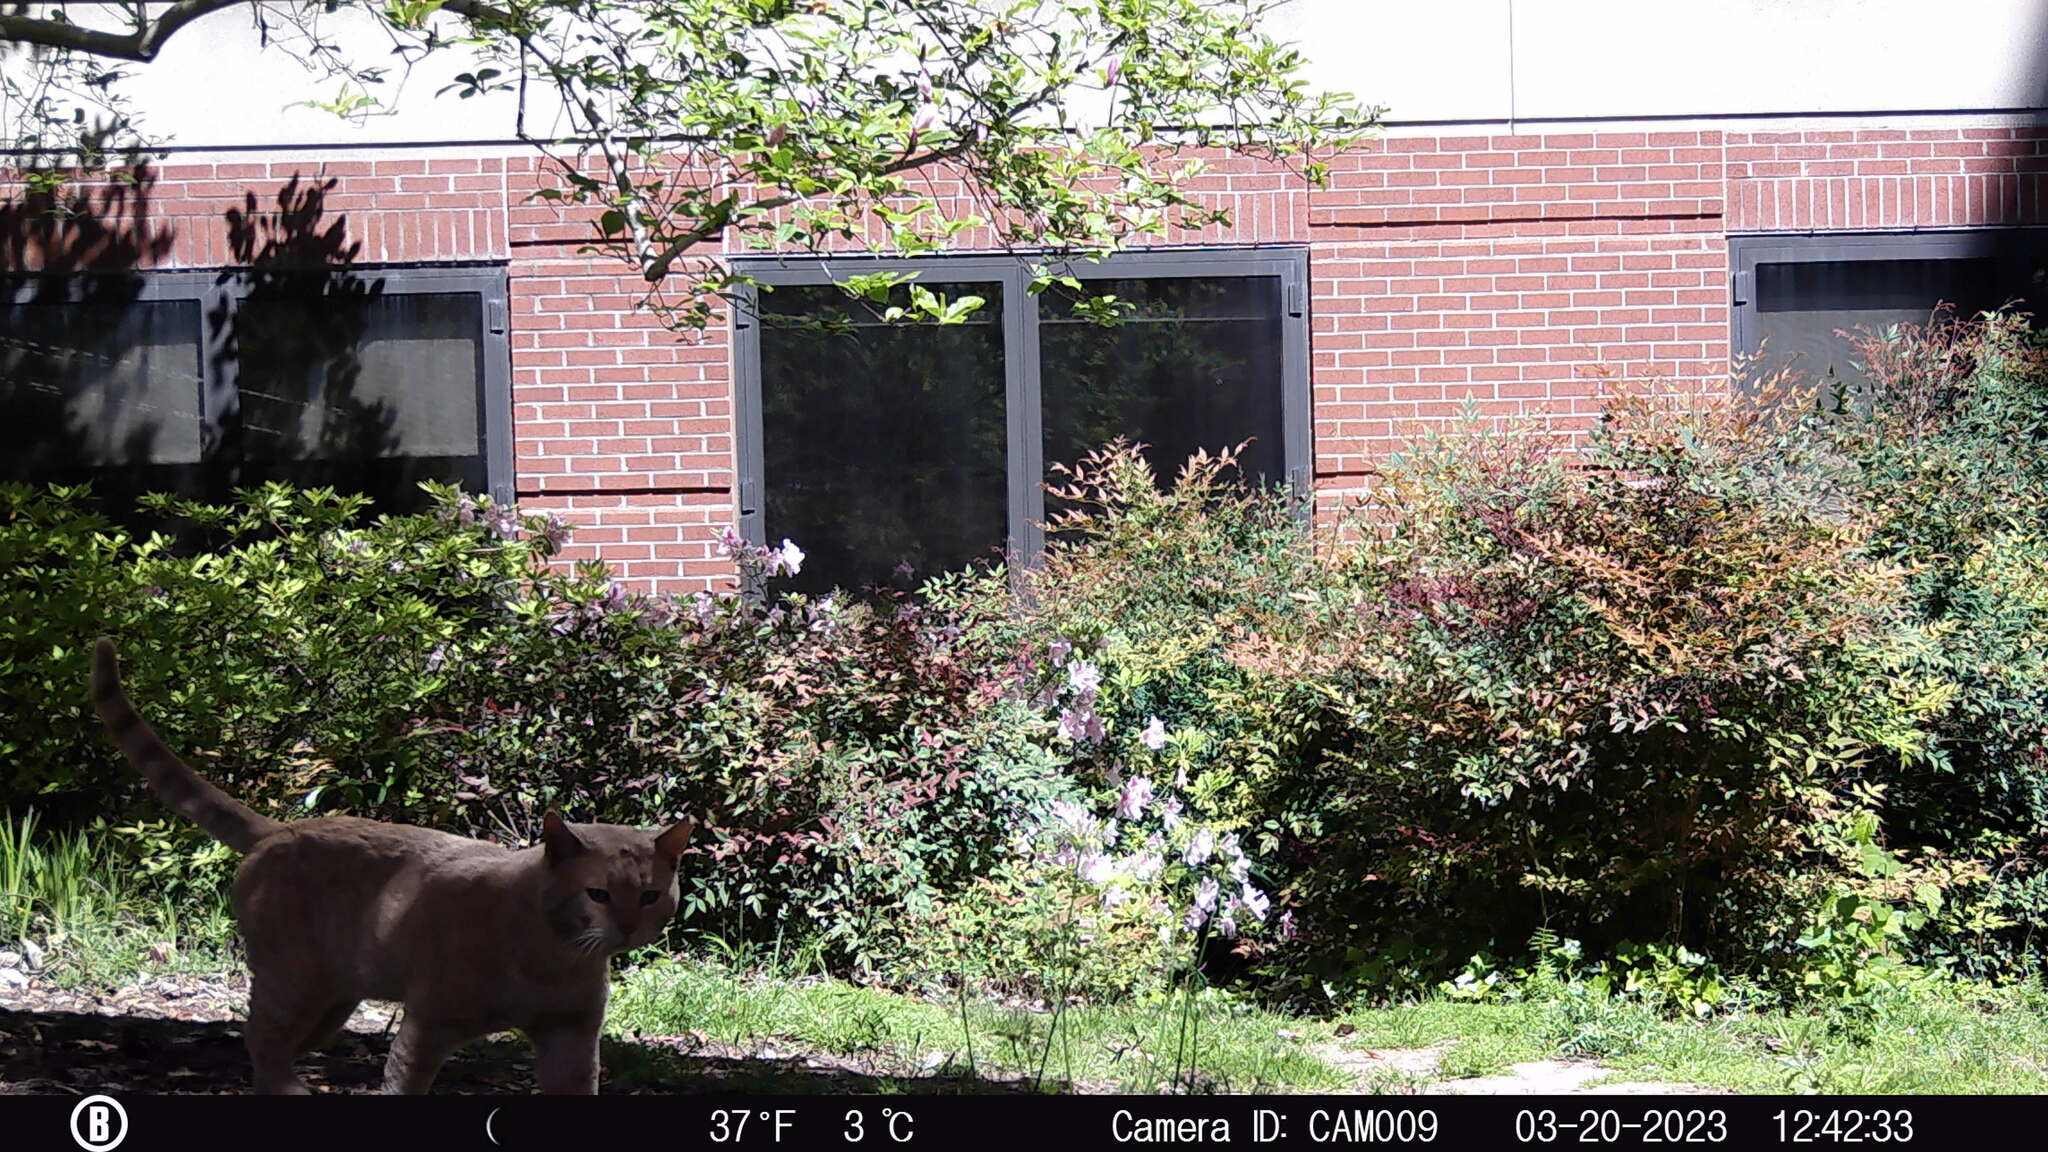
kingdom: Animalia
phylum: Chordata
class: Mammalia
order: Carnivora
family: Felidae
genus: Felis
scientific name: Felis catus
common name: Domestic cat
